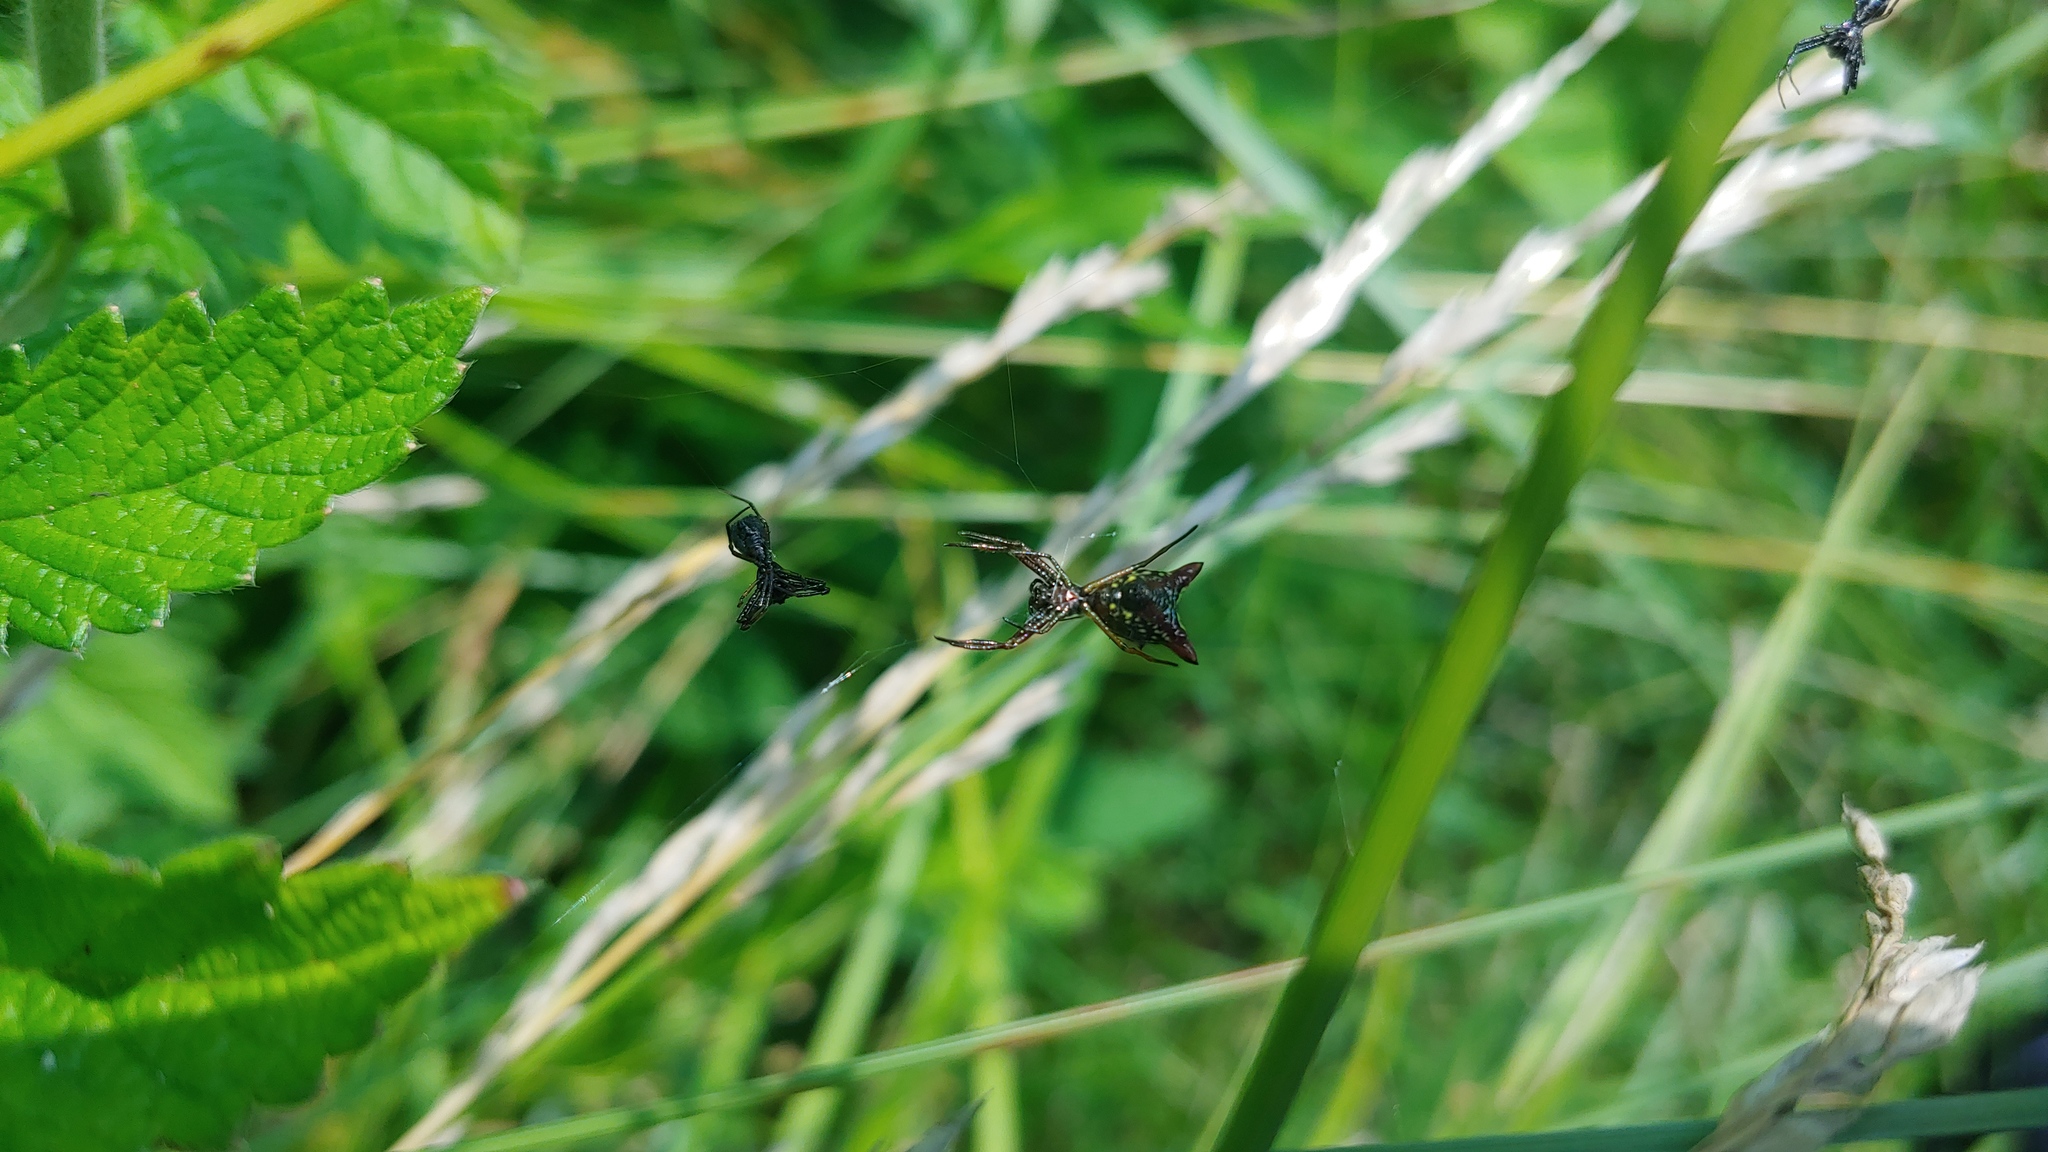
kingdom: Animalia
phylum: Arthropoda
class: Arachnida
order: Araneae
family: Araneidae
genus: Micrathena
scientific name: Micrathena sagittata
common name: Orb weavers
